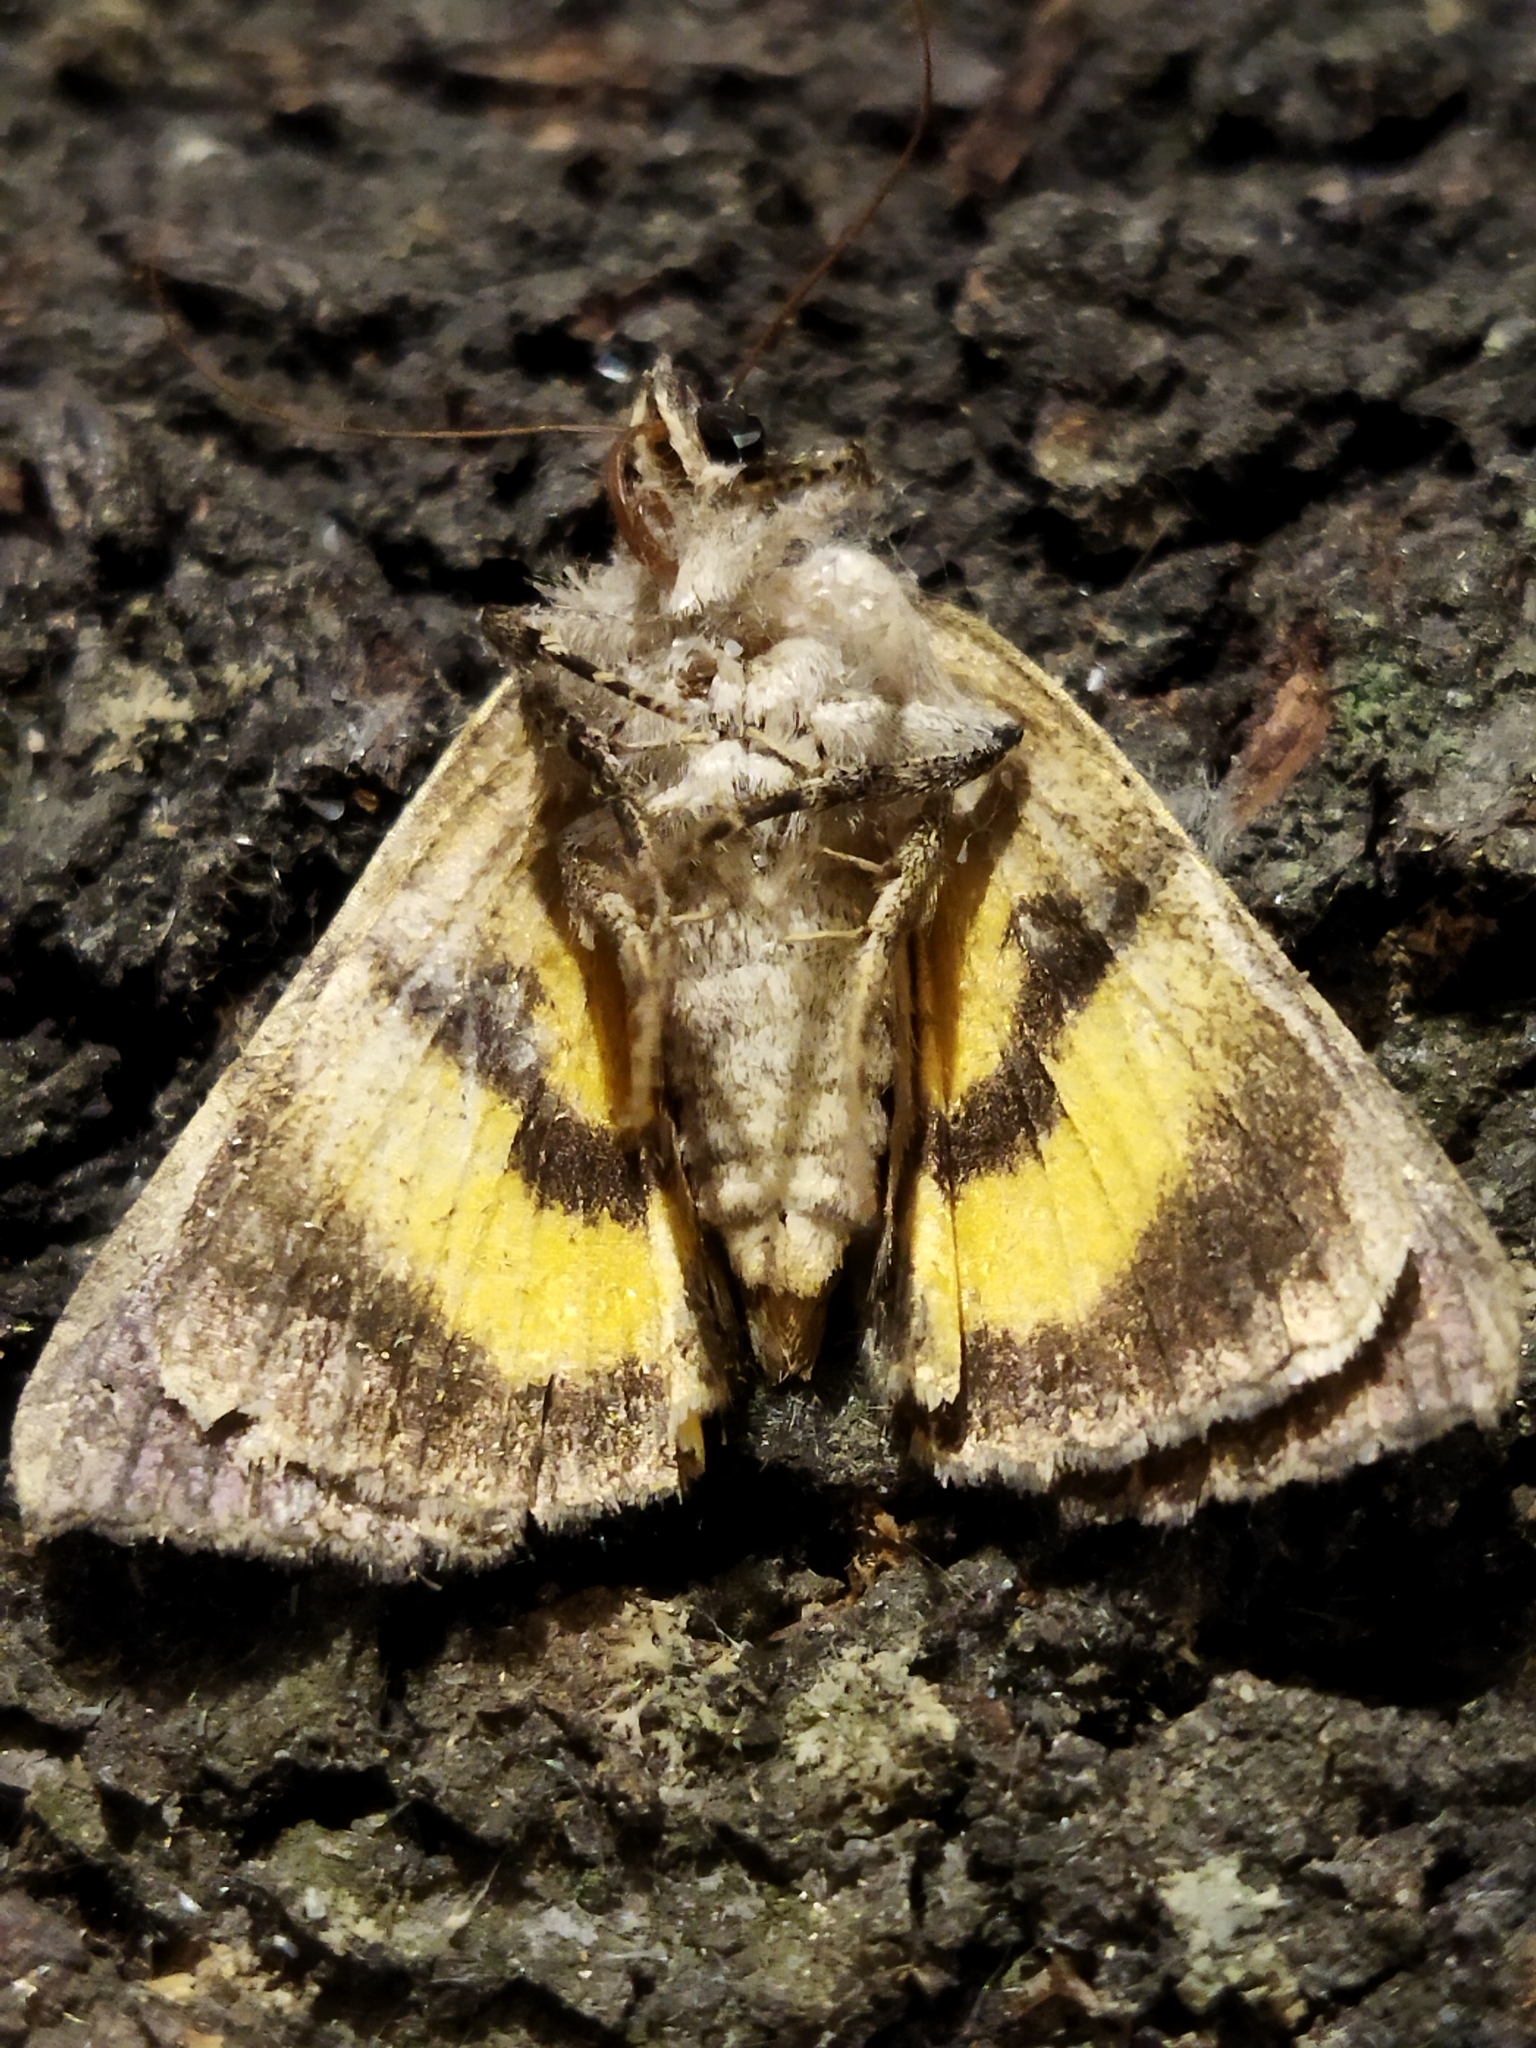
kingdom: Animalia
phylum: Arthropoda
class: Insecta
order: Lepidoptera
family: Erebidae
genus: Catocala
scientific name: Catocala hymenaea
